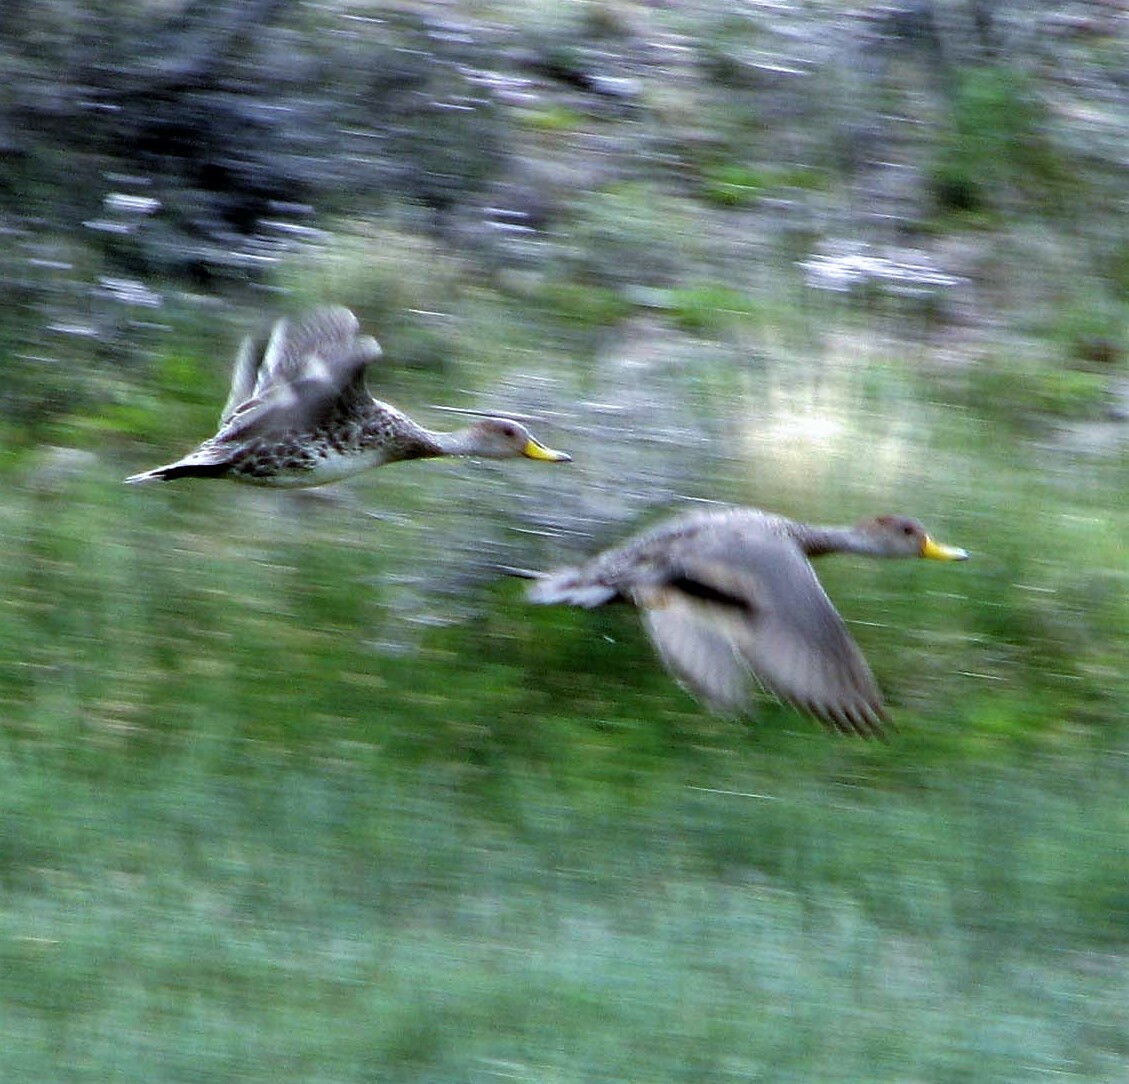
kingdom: Animalia
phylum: Chordata
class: Aves
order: Anseriformes
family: Anatidae
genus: Anas
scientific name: Anas georgica
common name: Yellow-billed pintail
